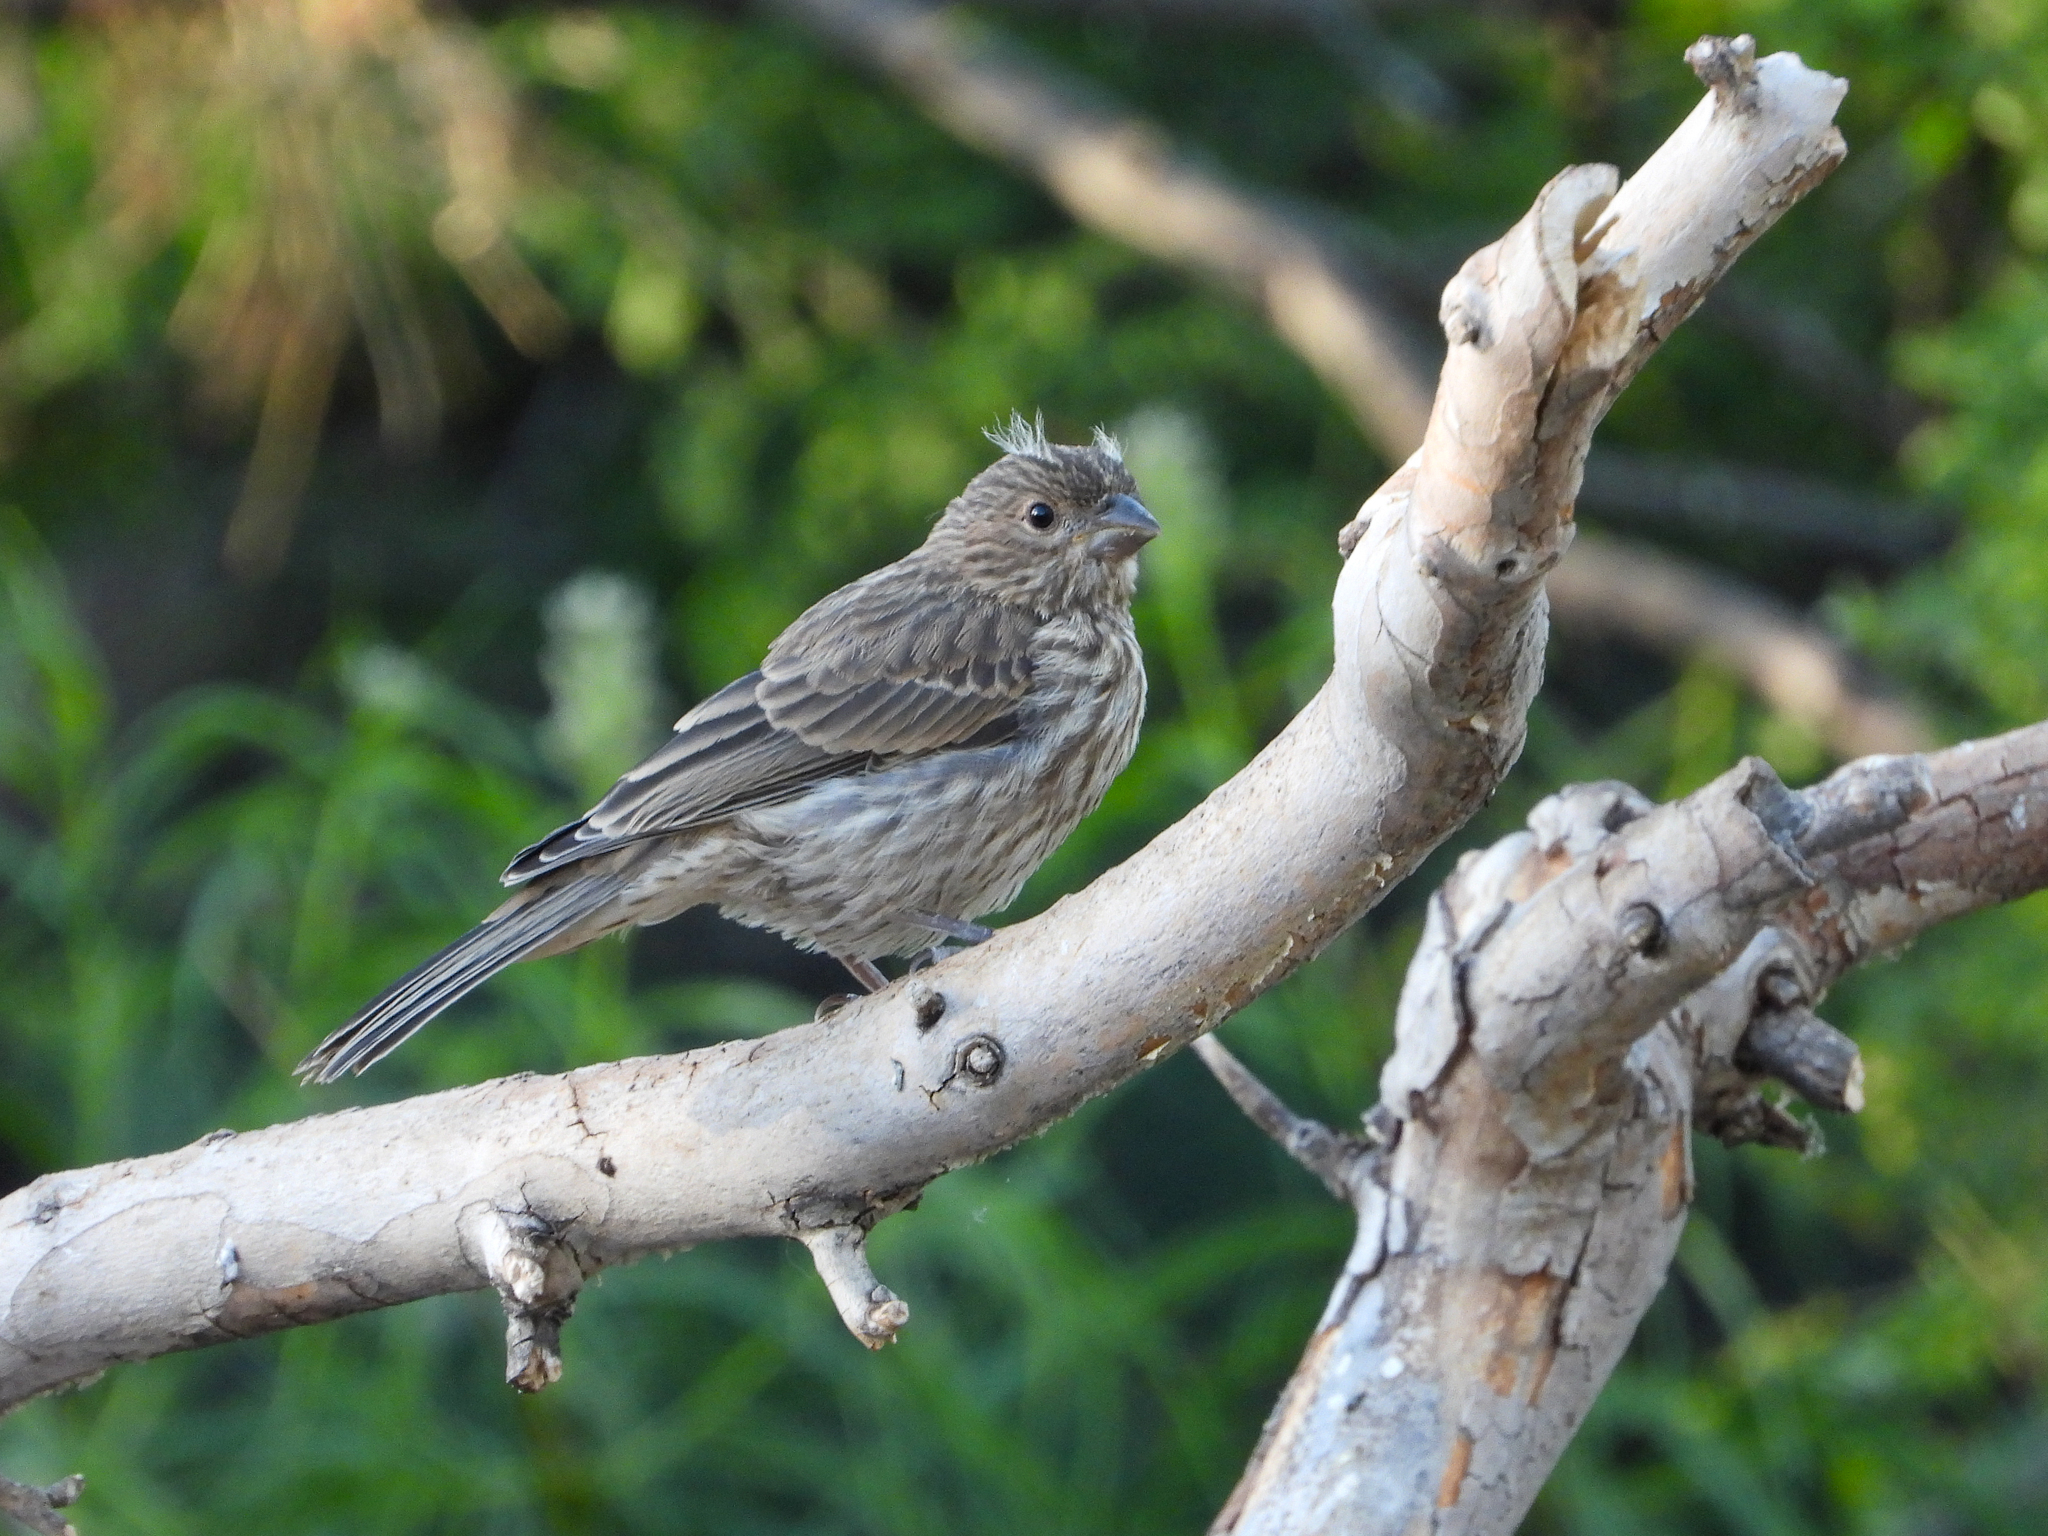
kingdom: Animalia
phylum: Chordata
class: Aves
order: Passeriformes
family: Fringillidae
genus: Haemorhous
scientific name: Haemorhous mexicanus
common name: House finch
